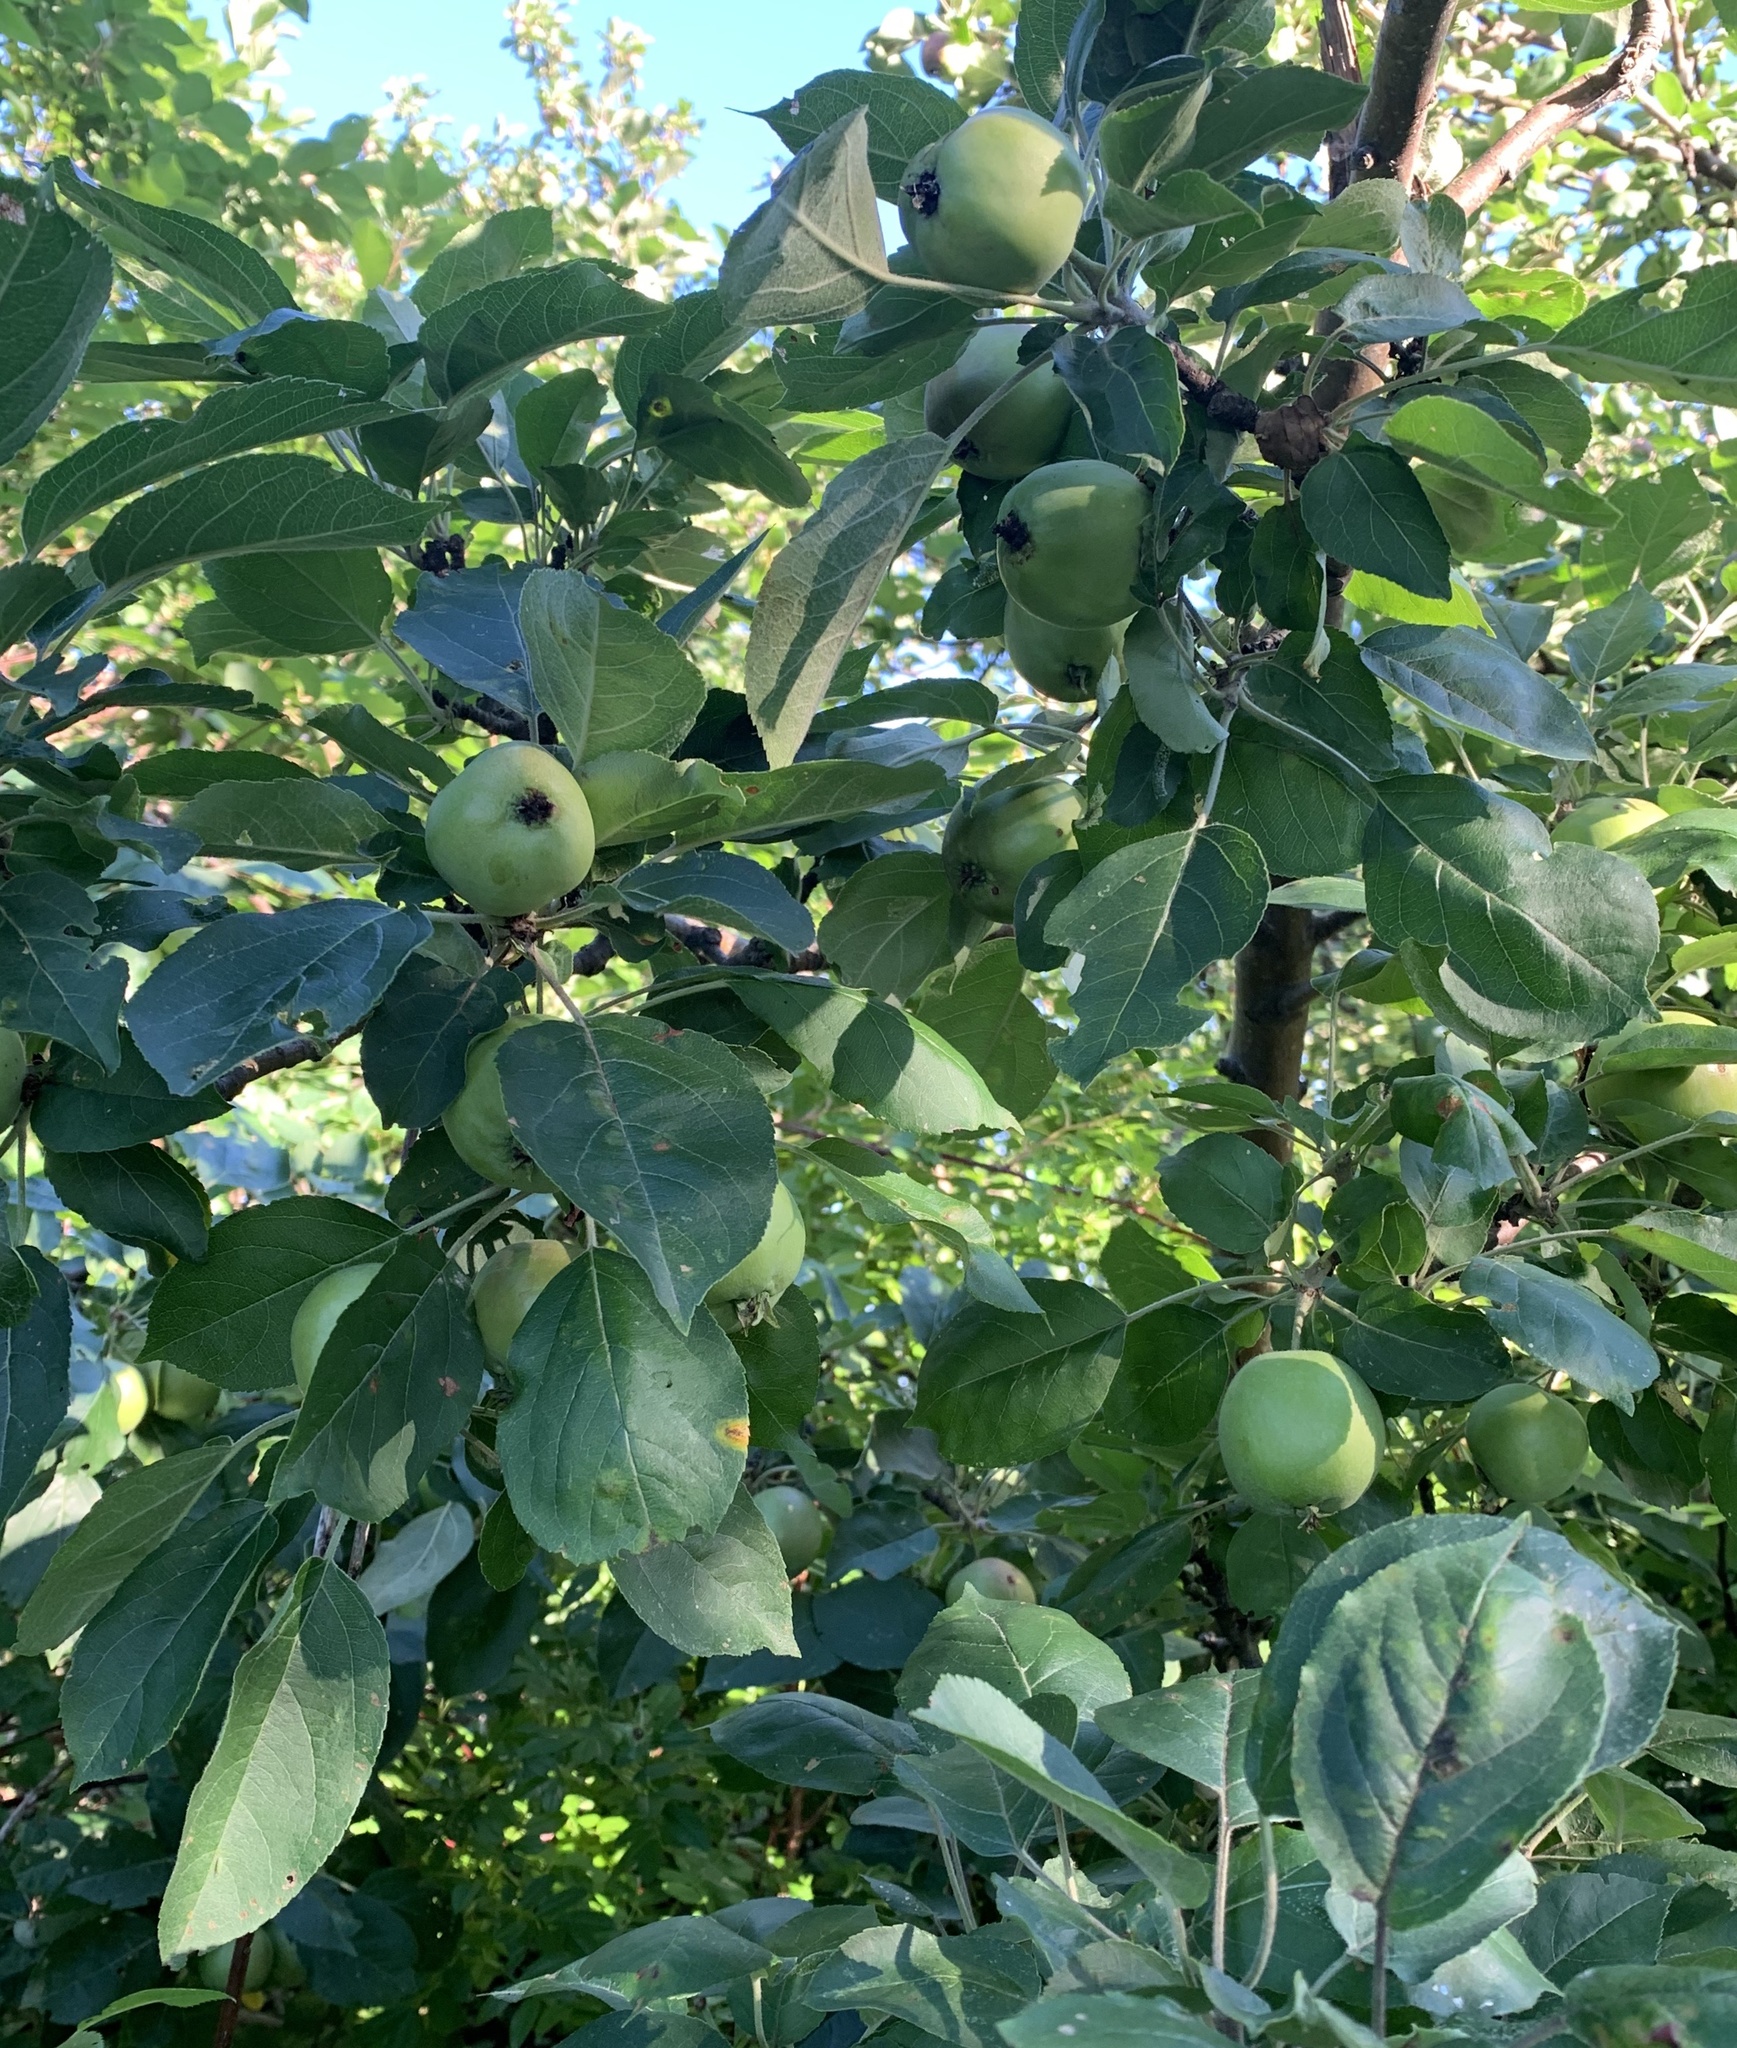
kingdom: Plantae
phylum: Tracheophyta
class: Magnoliopsida
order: Rosales
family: Rosaceae
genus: Malus
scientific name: Malus domestica
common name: Apple
